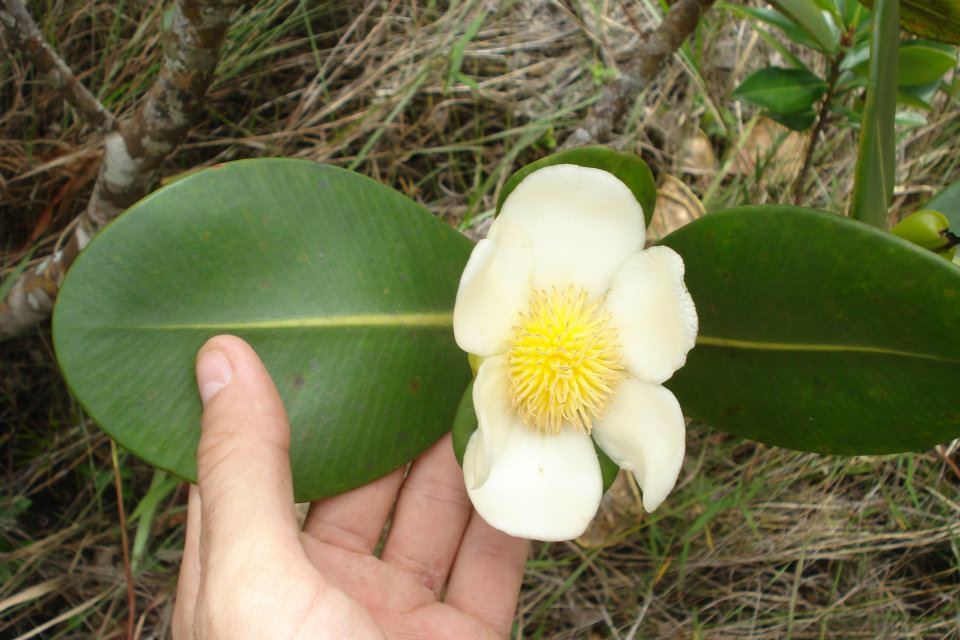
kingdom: Plantae
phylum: Tracheophyta
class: Magnoliopsida
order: Malpighiales
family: Clusiaceae
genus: Clusia
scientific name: Clusia fragrans
